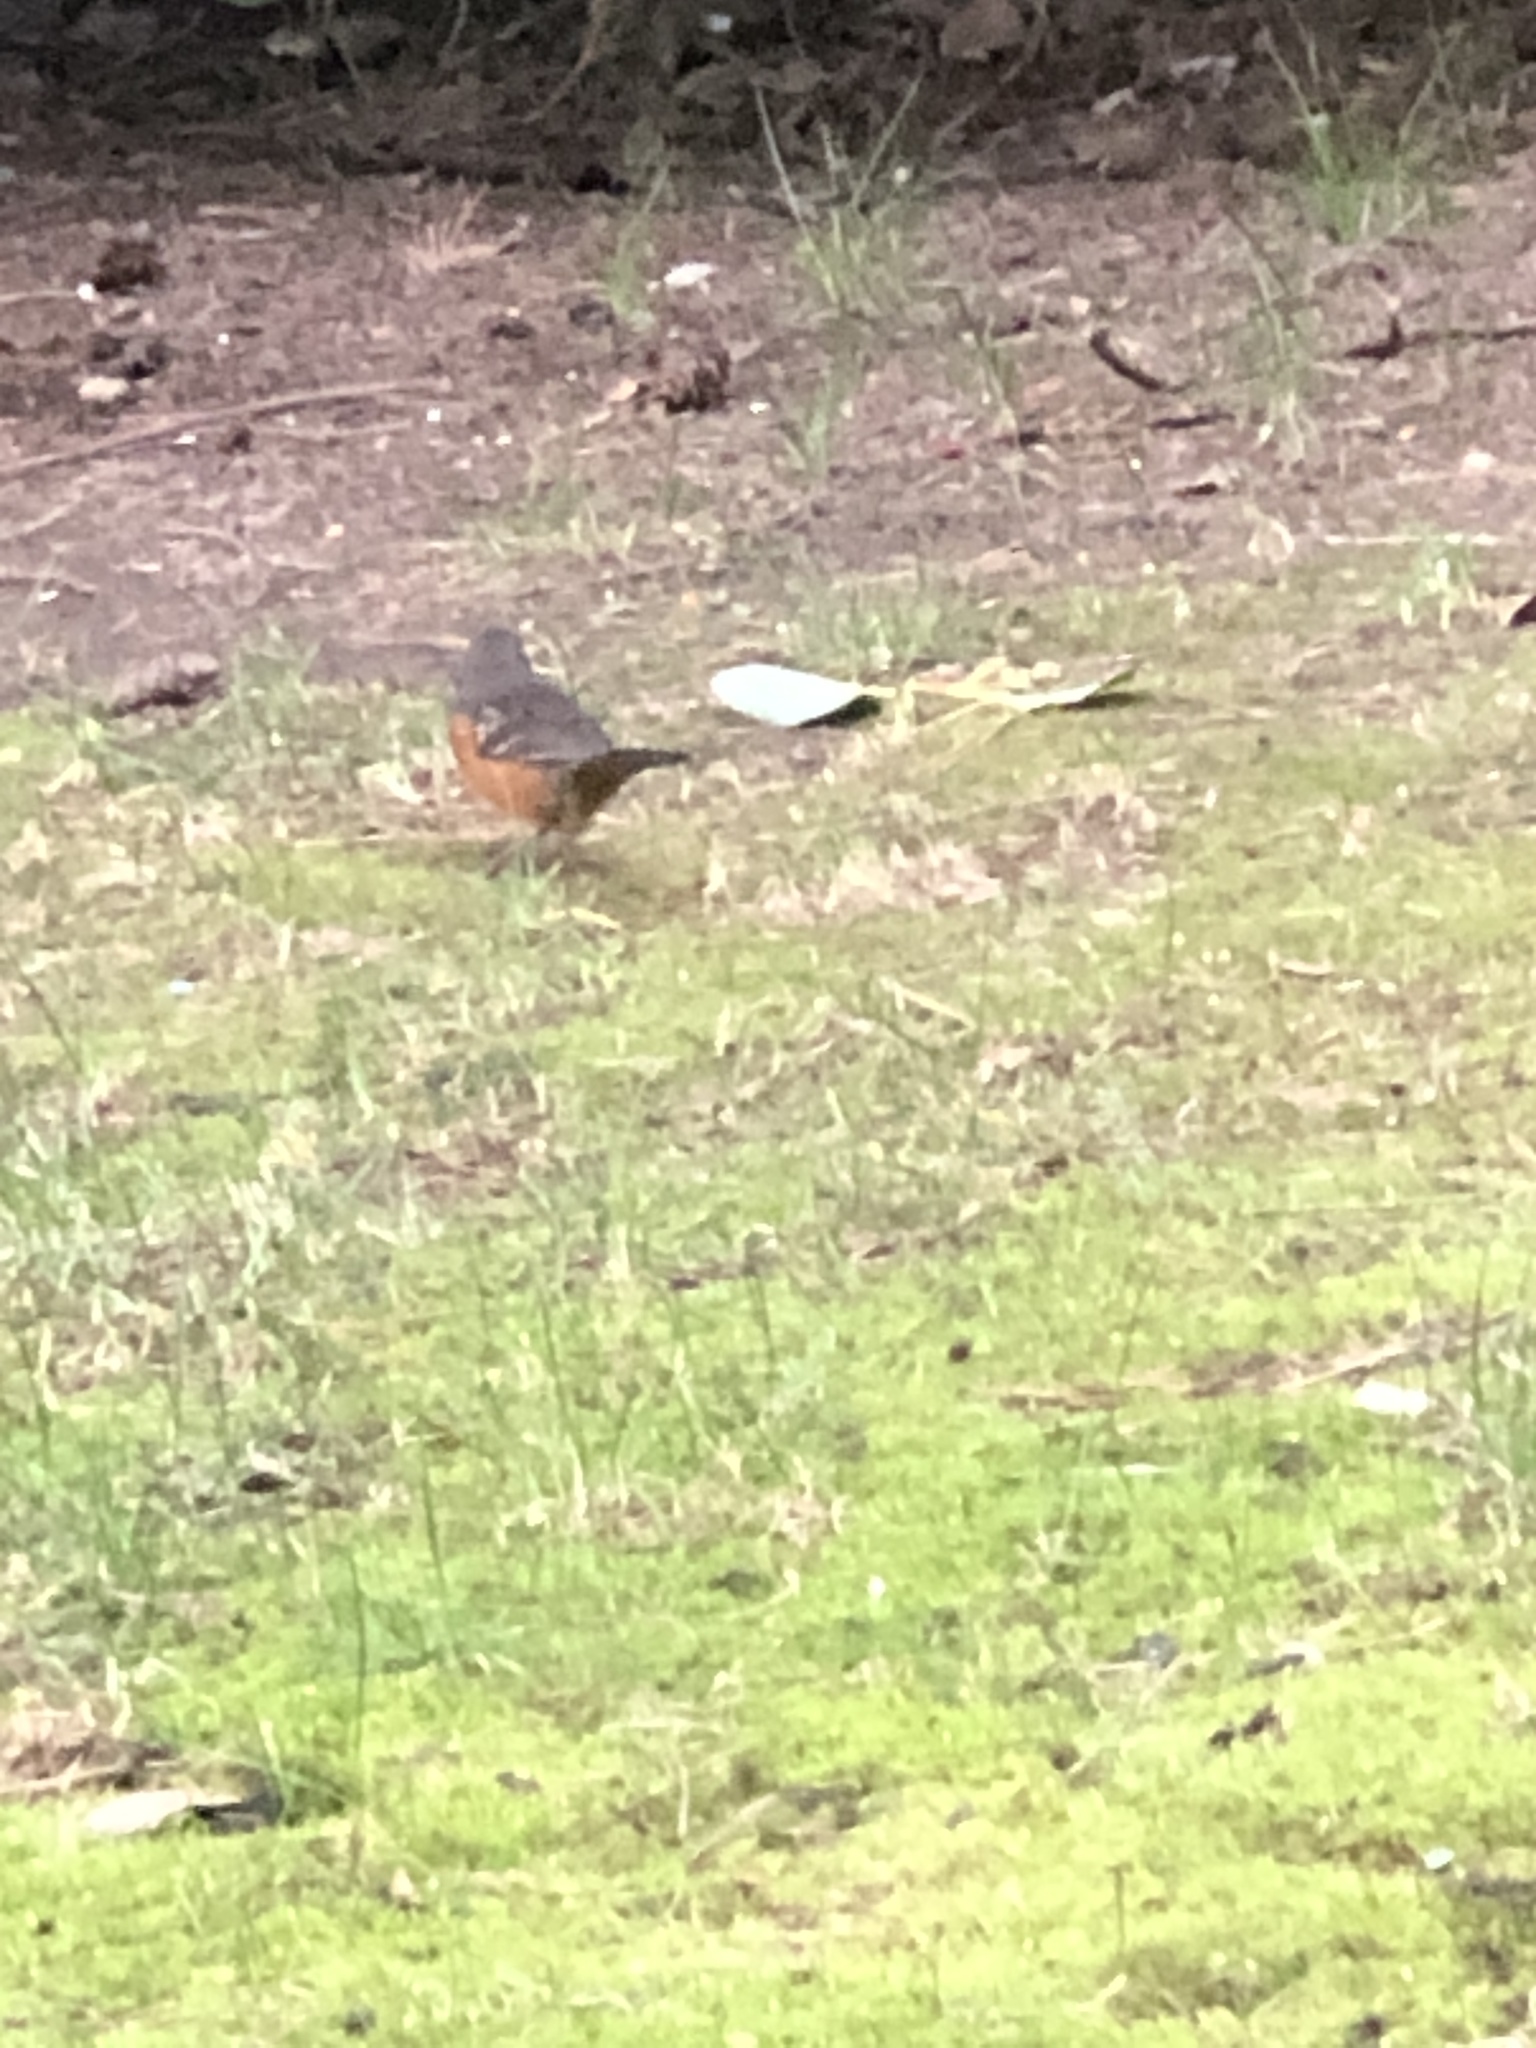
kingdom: Animalia
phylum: Chordata
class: Aves
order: Passeriformes
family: Passerellidae
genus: Pipilo
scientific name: Pipilo maculatus
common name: Spotted towhee
